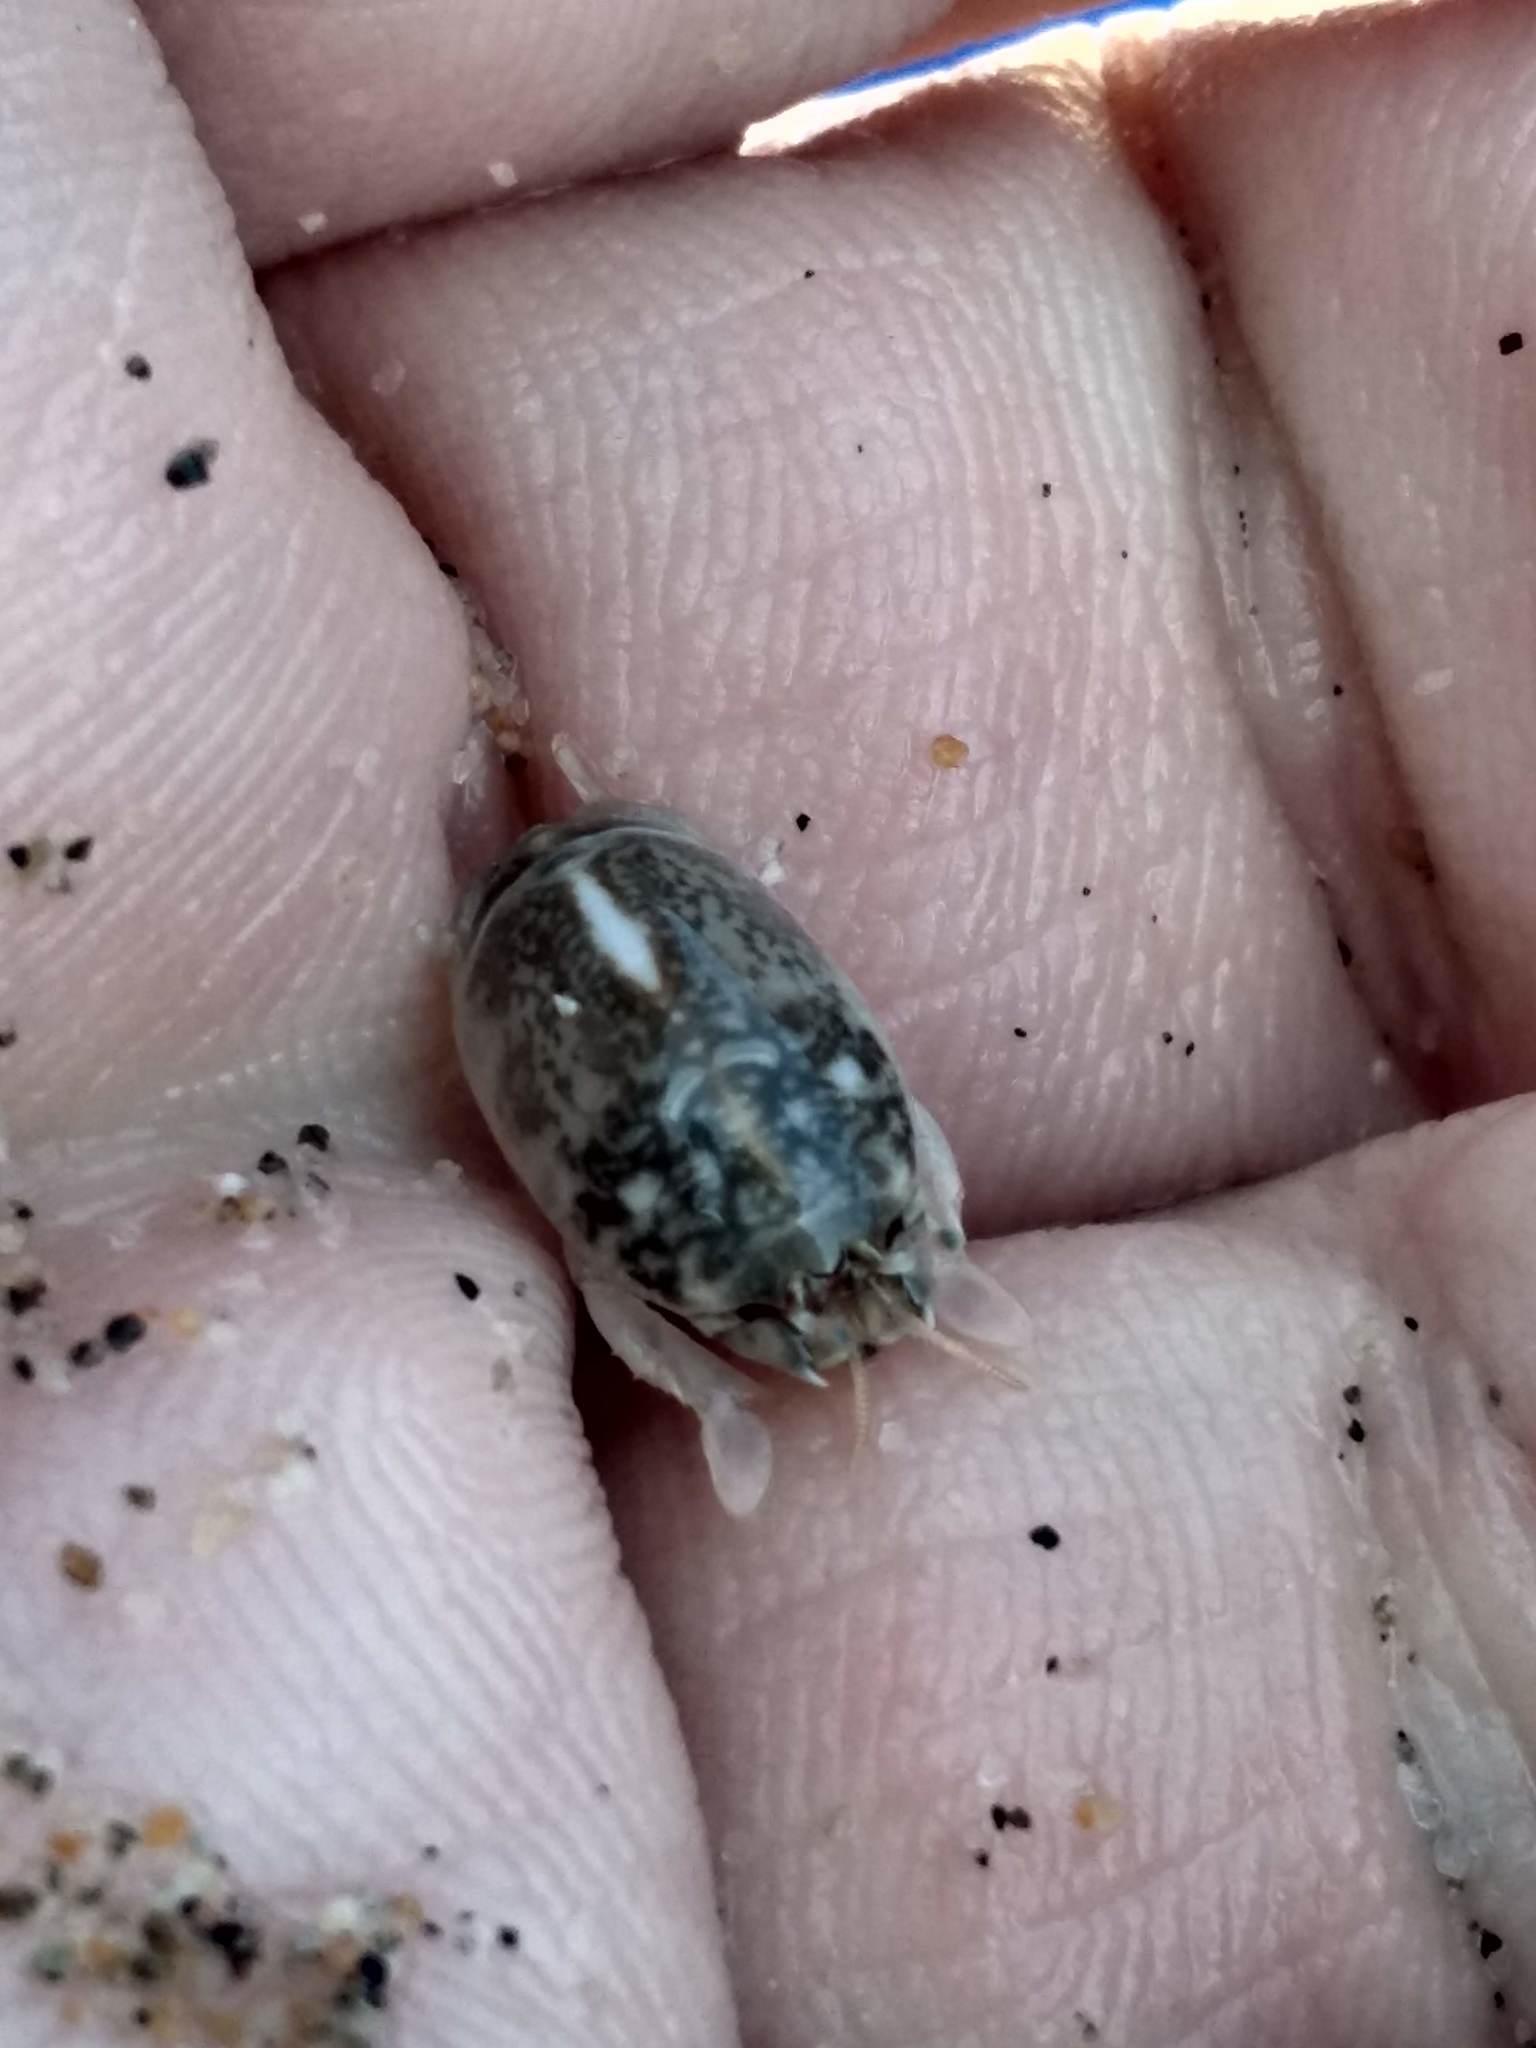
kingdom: Animalia
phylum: Arthropoda
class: Malacostraca
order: Decapoda
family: Hippidae
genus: Emerita
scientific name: Emerita analoga
